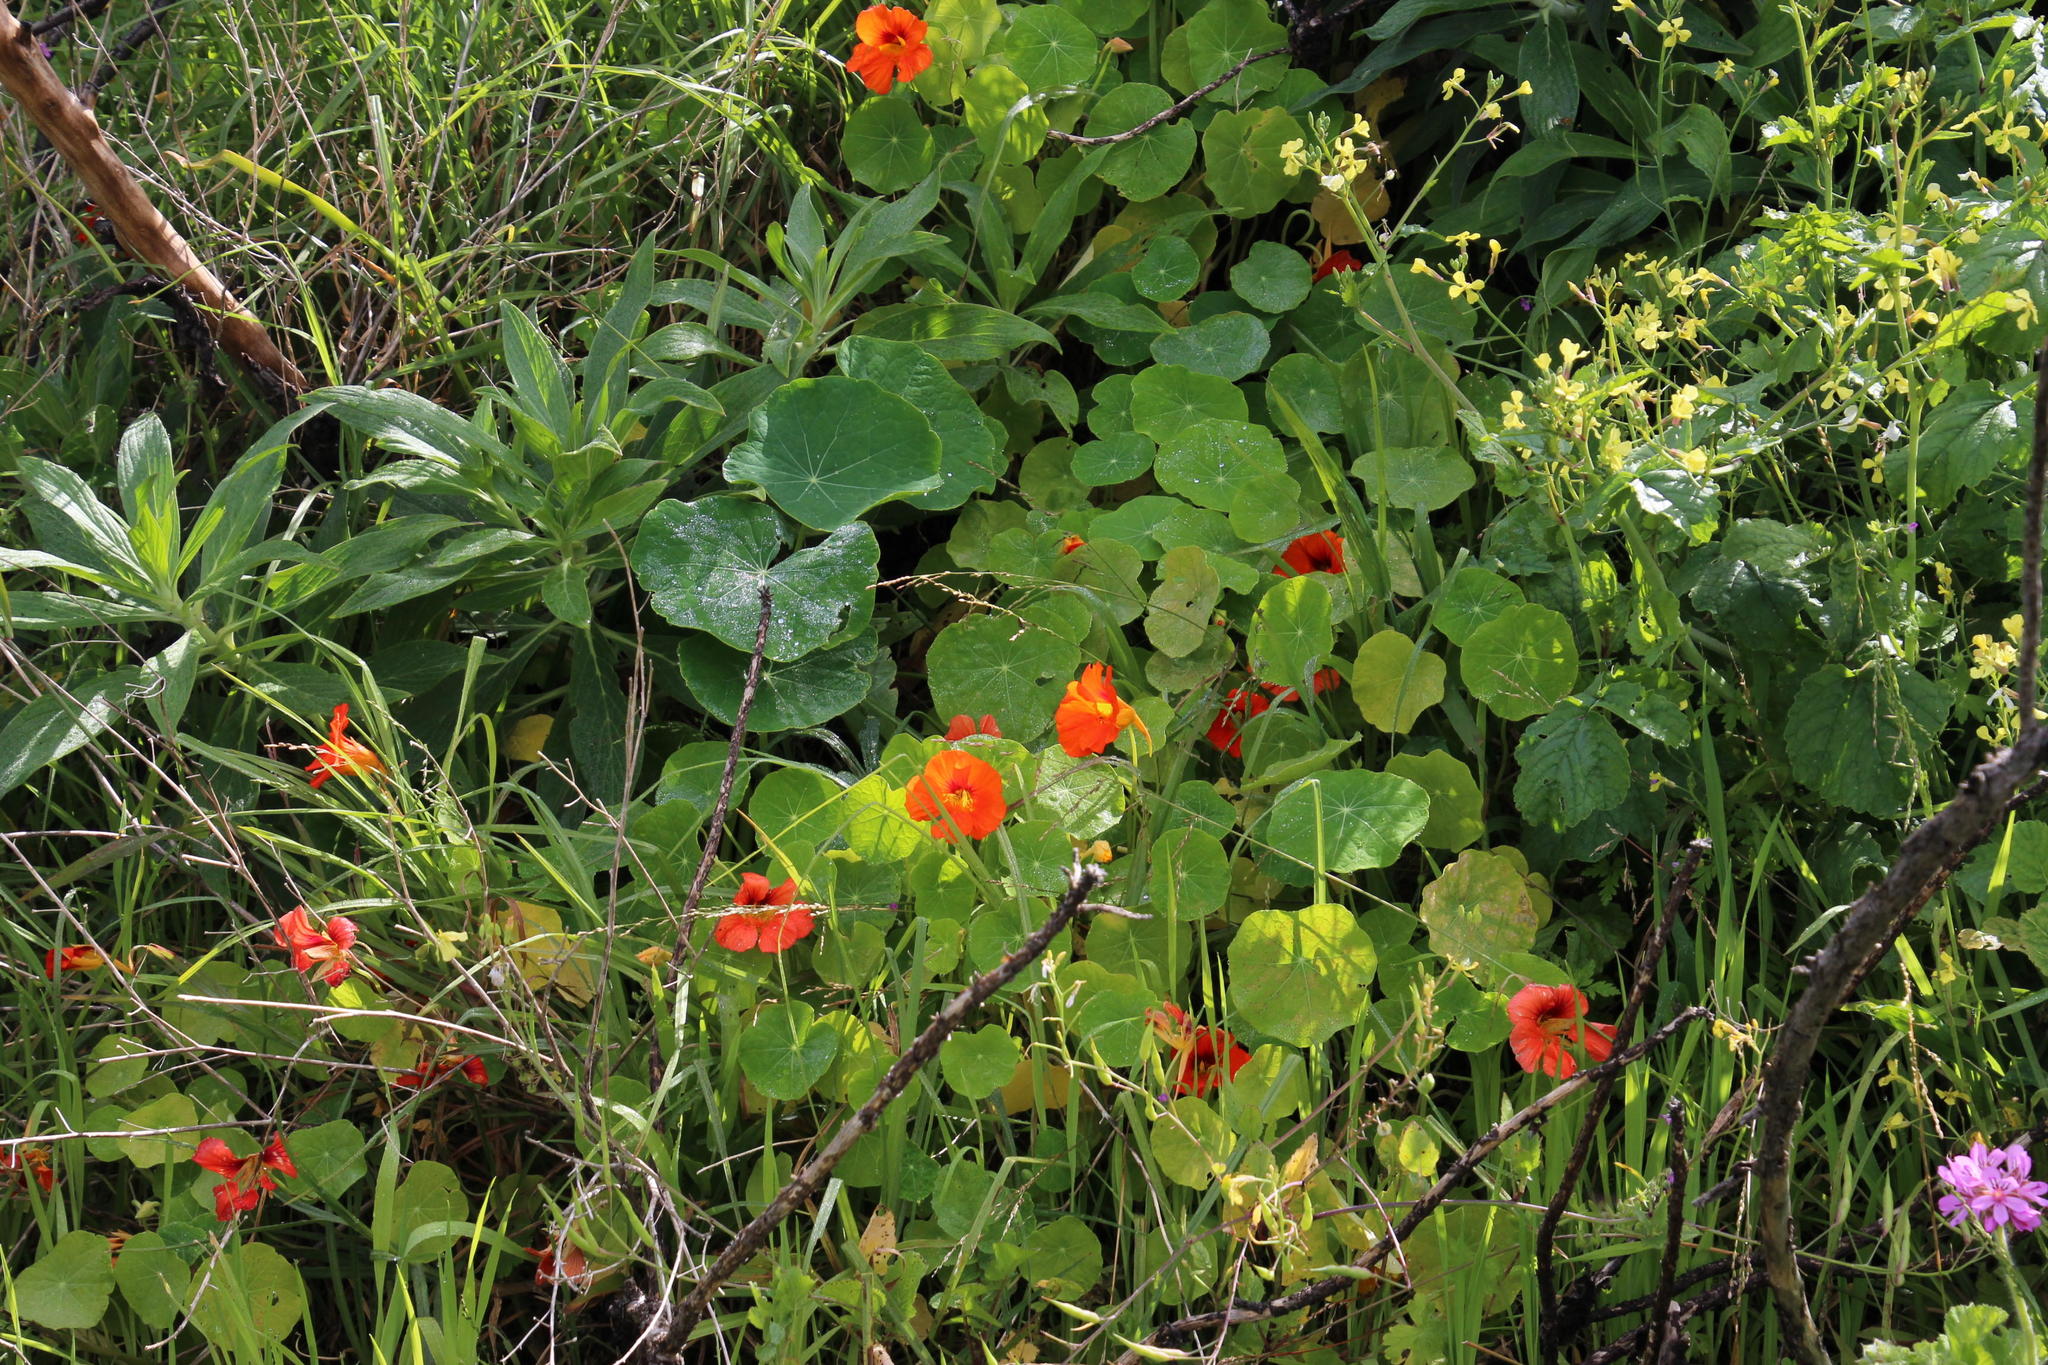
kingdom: Plantae
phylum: Tracheophyta
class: Magnoliopsida
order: Brassicales
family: Tropaeolaceae
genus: Tropaeolum
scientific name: Tropaeolum majus
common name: Nasturtium
